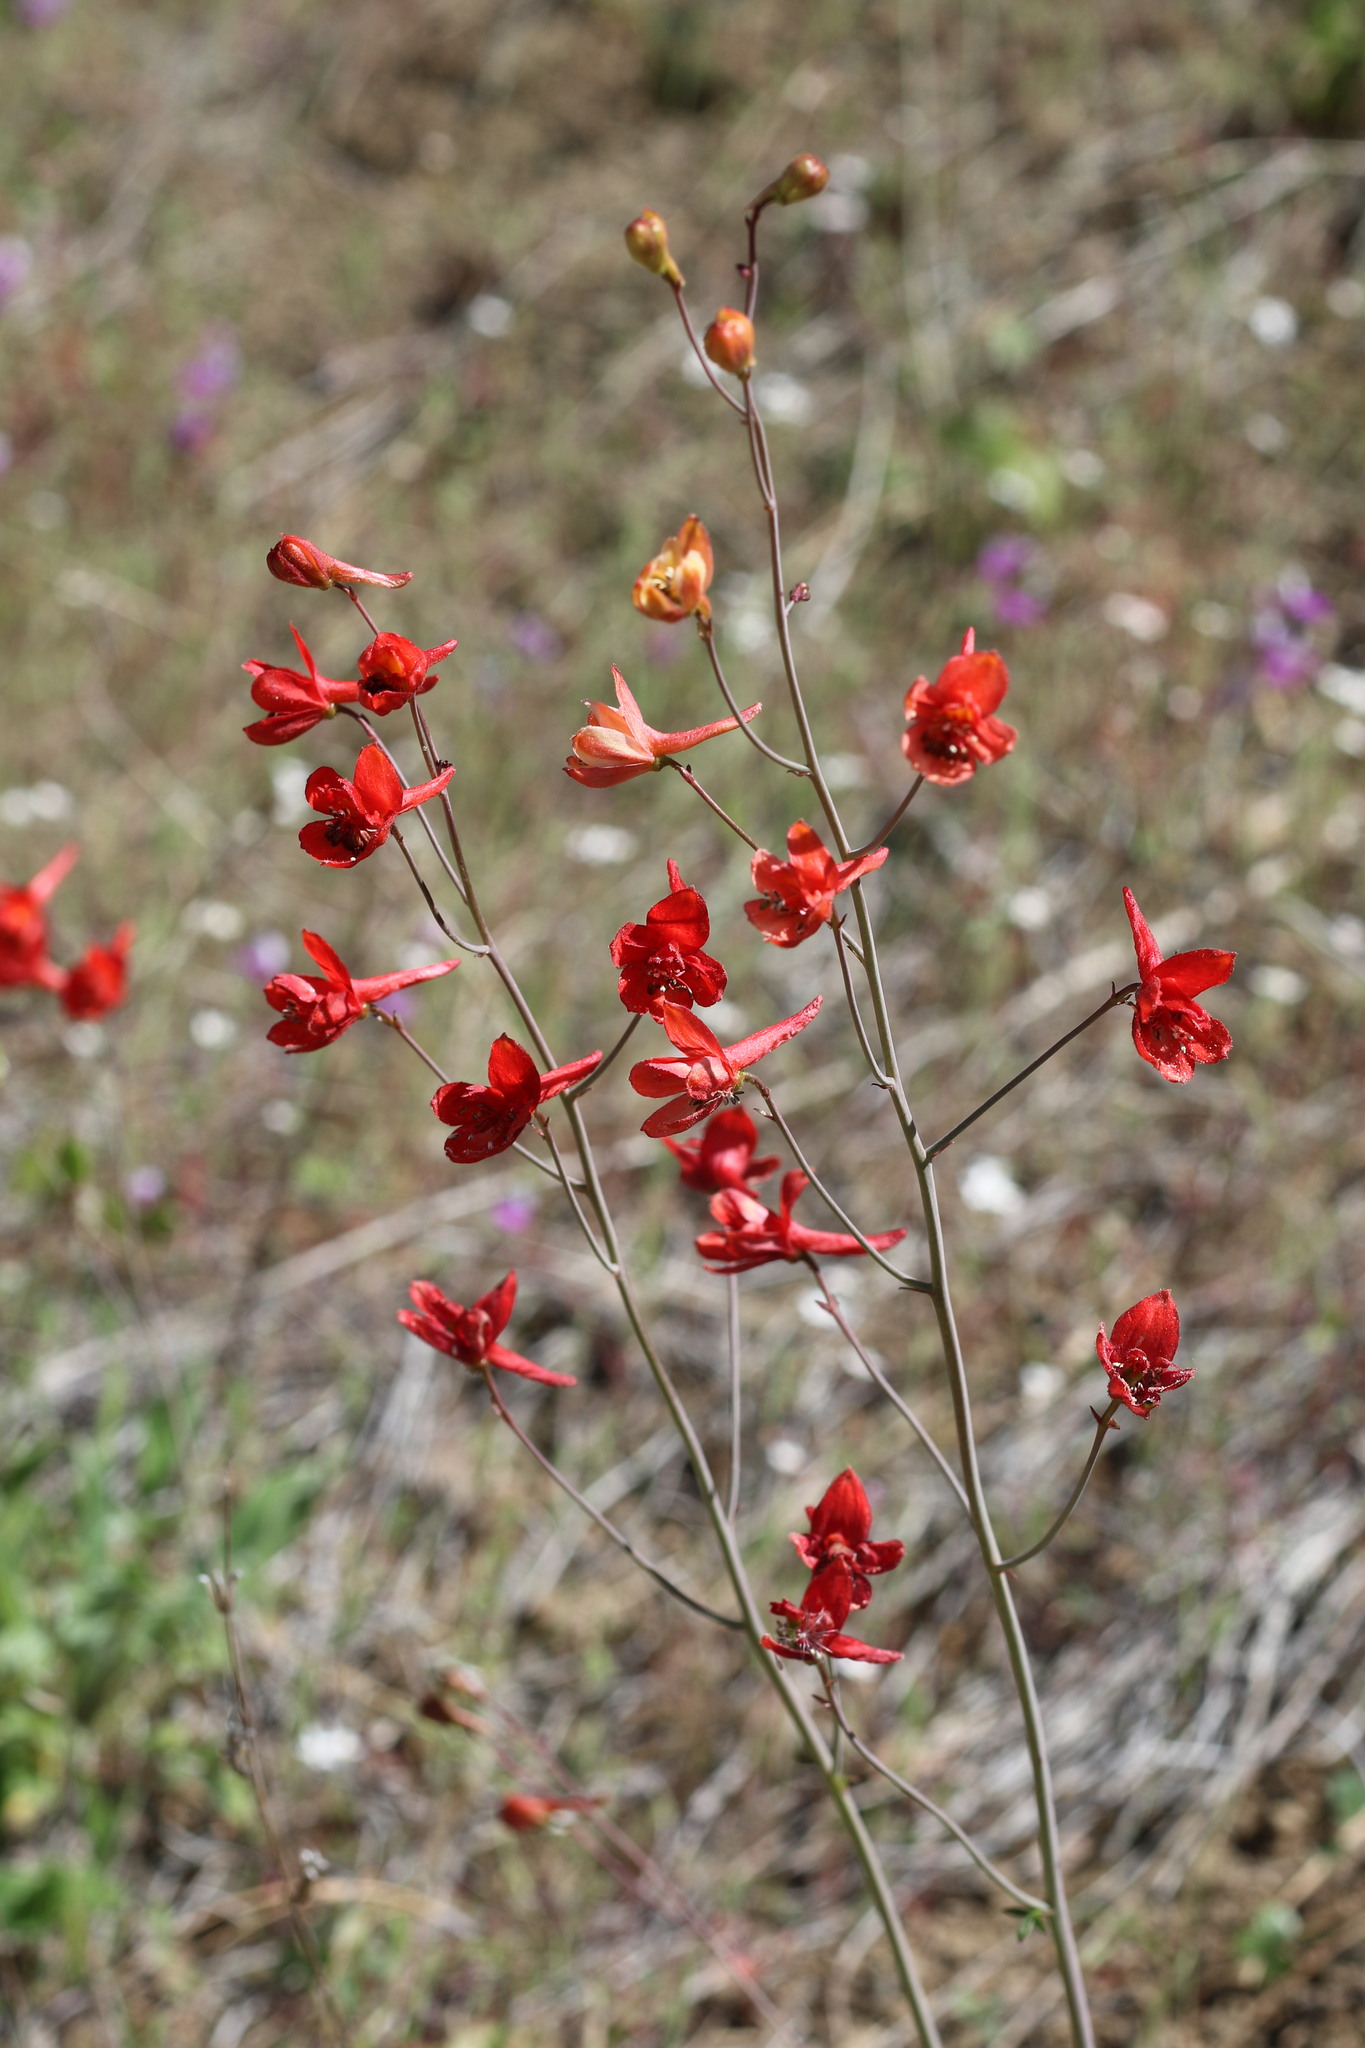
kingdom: Plantae
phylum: Tracheophyta
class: Magnoliopsida
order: Ranunculales
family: Ranunculaceae
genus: Delphinium
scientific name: Delphinium nudicaule
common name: Red larkspur
